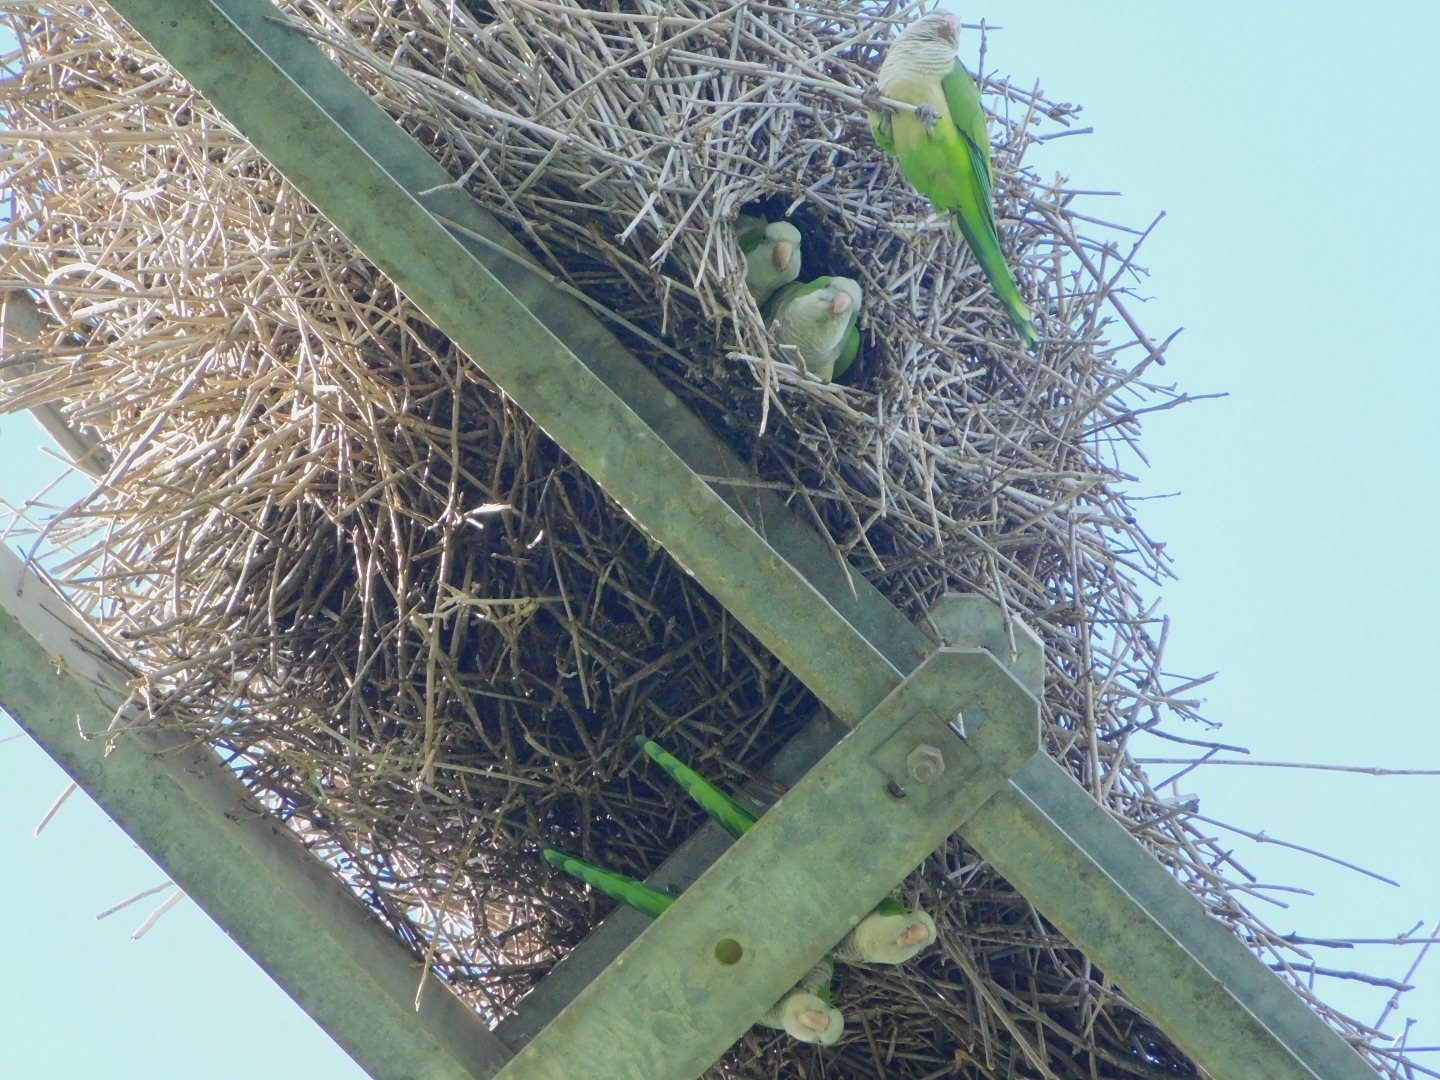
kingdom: Animalia
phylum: Chordata
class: Aves
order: Psittaciformes
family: Psittacidae
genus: Myiopsitta
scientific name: Myiopsitta monachus
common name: Monk parakeet
